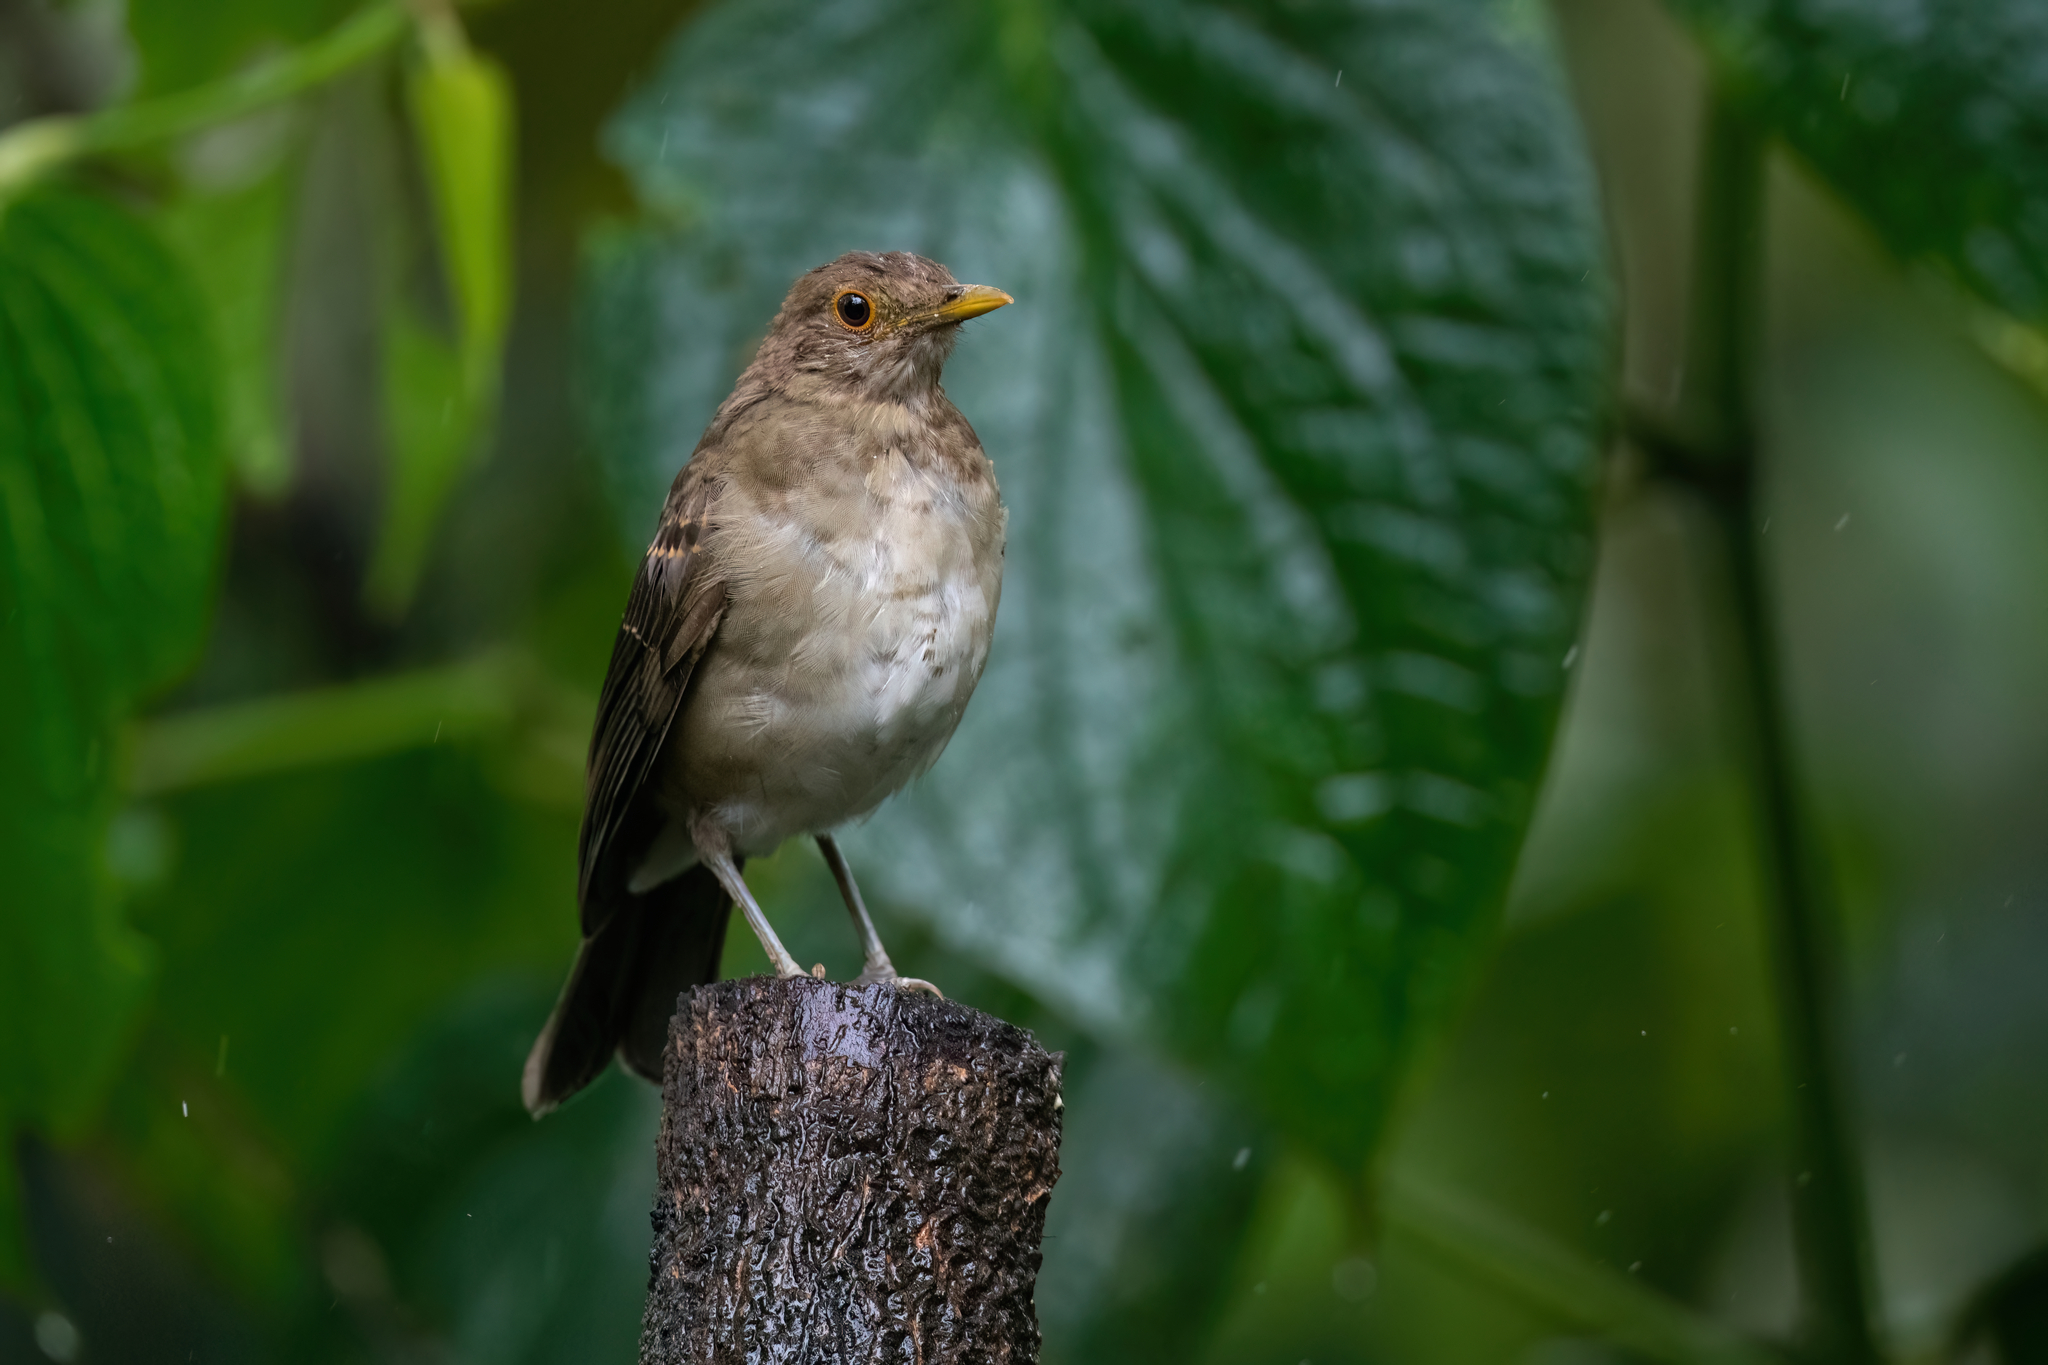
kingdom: Animalia
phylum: Chordata
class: Aves
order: Passeriformes
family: Turdidae
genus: Turdus
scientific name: Turdus maculirostris
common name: Ecuadorian thrush
